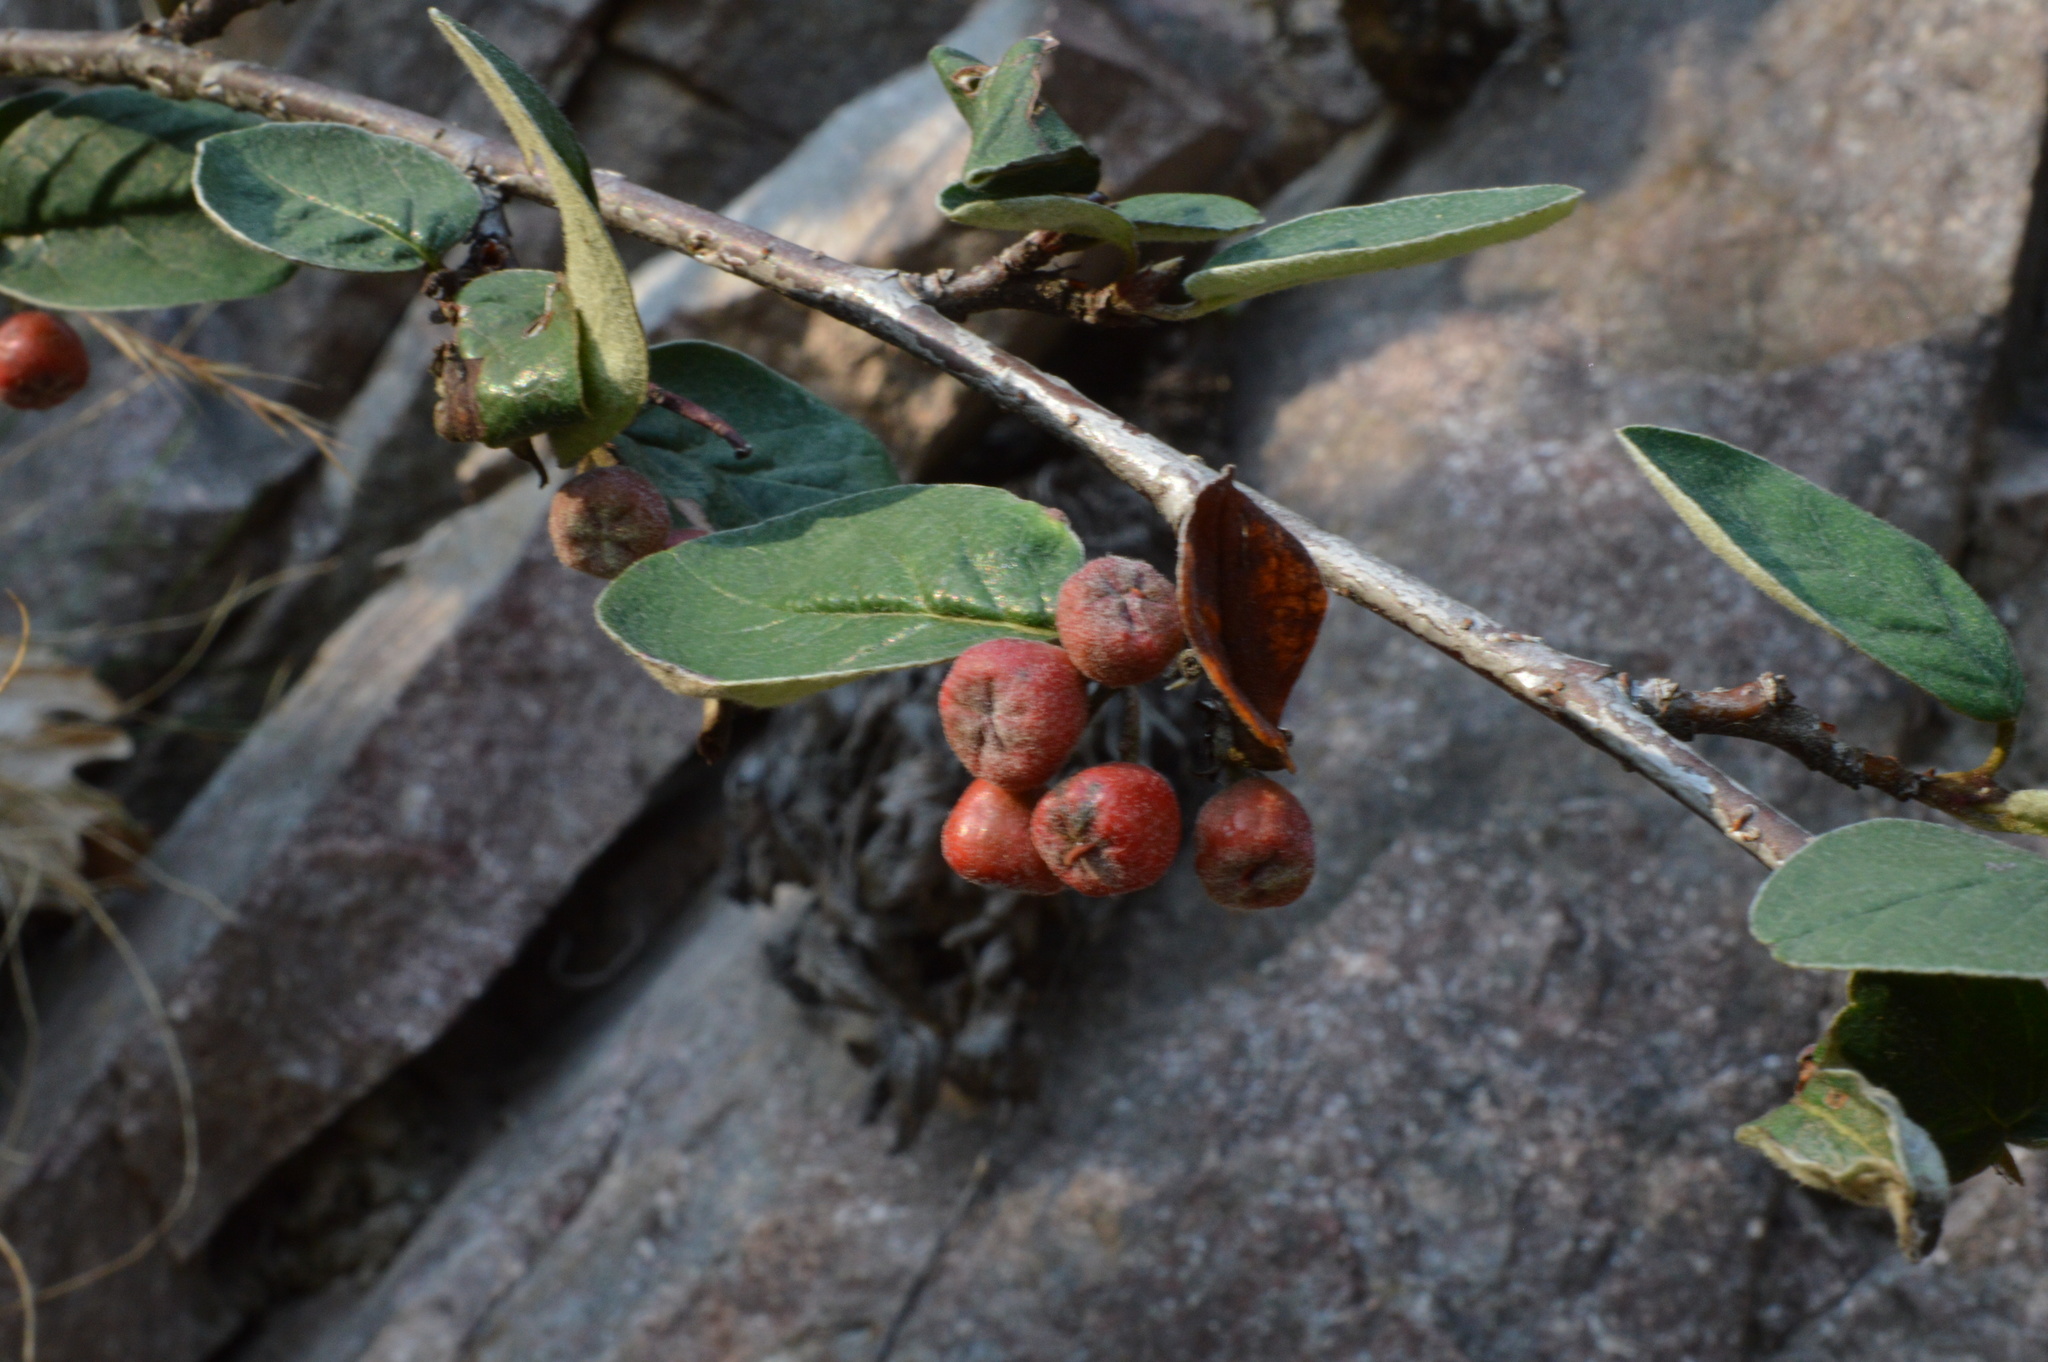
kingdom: Plantae
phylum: Tracheophyta
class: Magnoliopsida
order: Rosales
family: Rosaceae
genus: Cotoneaster
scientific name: Cotoneaster integerrimus
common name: Wild cotoneaster
